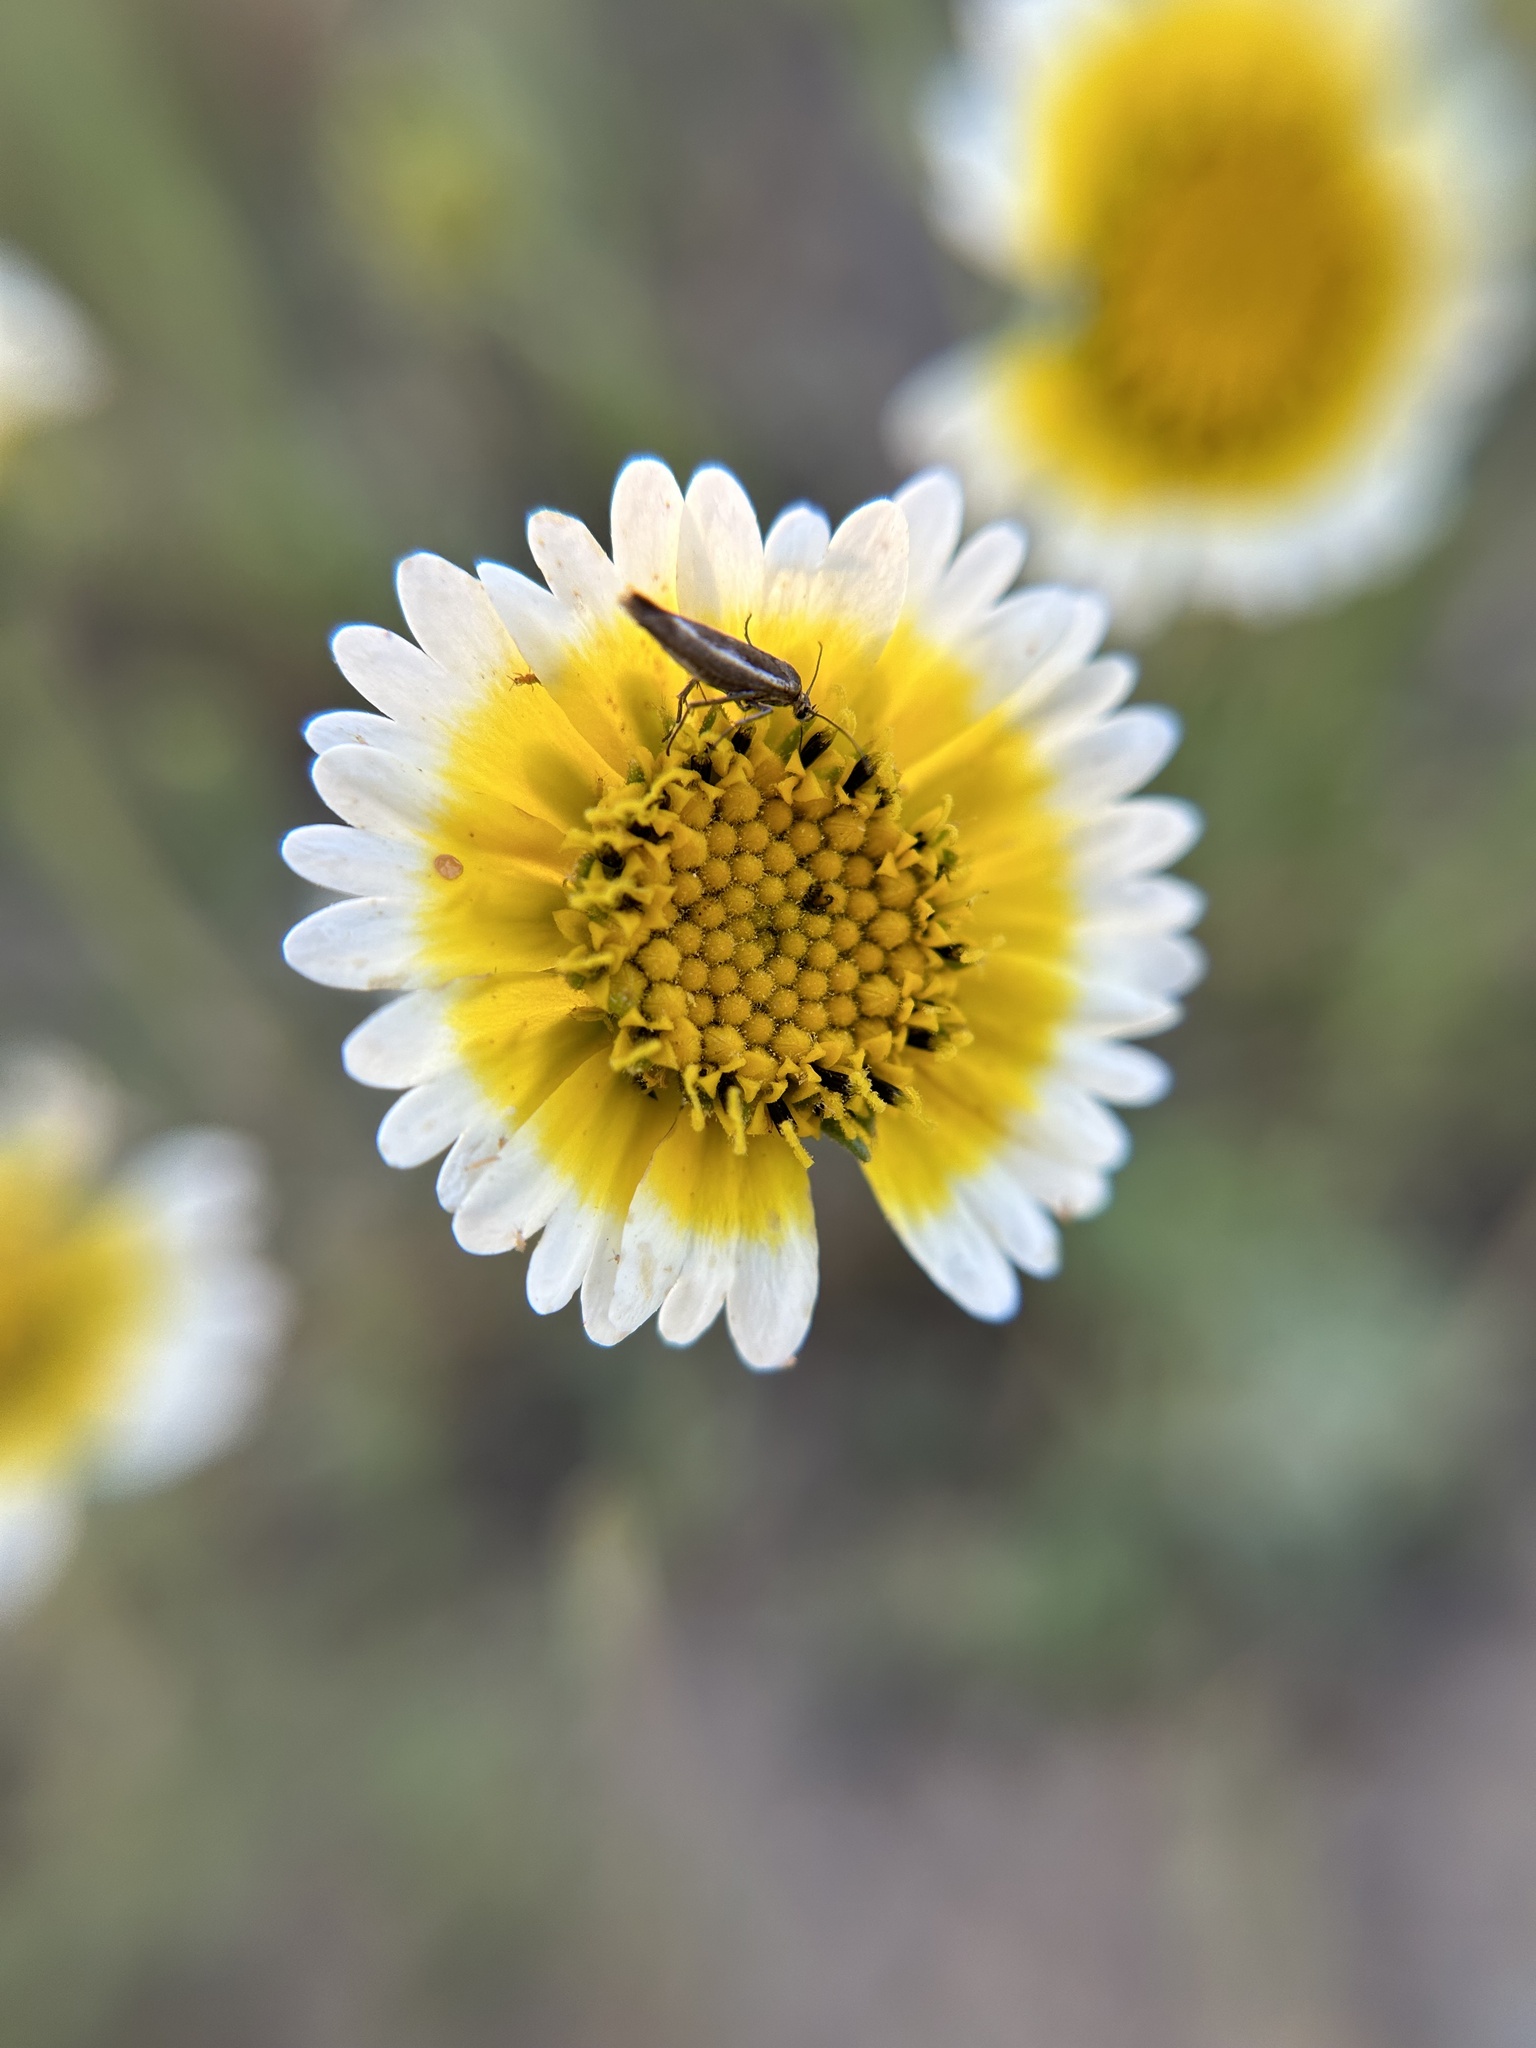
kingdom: Plantae
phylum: Tracheophyta
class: Magnoliopsida
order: Asterales
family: Asteraceae
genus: Layia
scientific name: Layia platyglossa
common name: Tidy-tips
